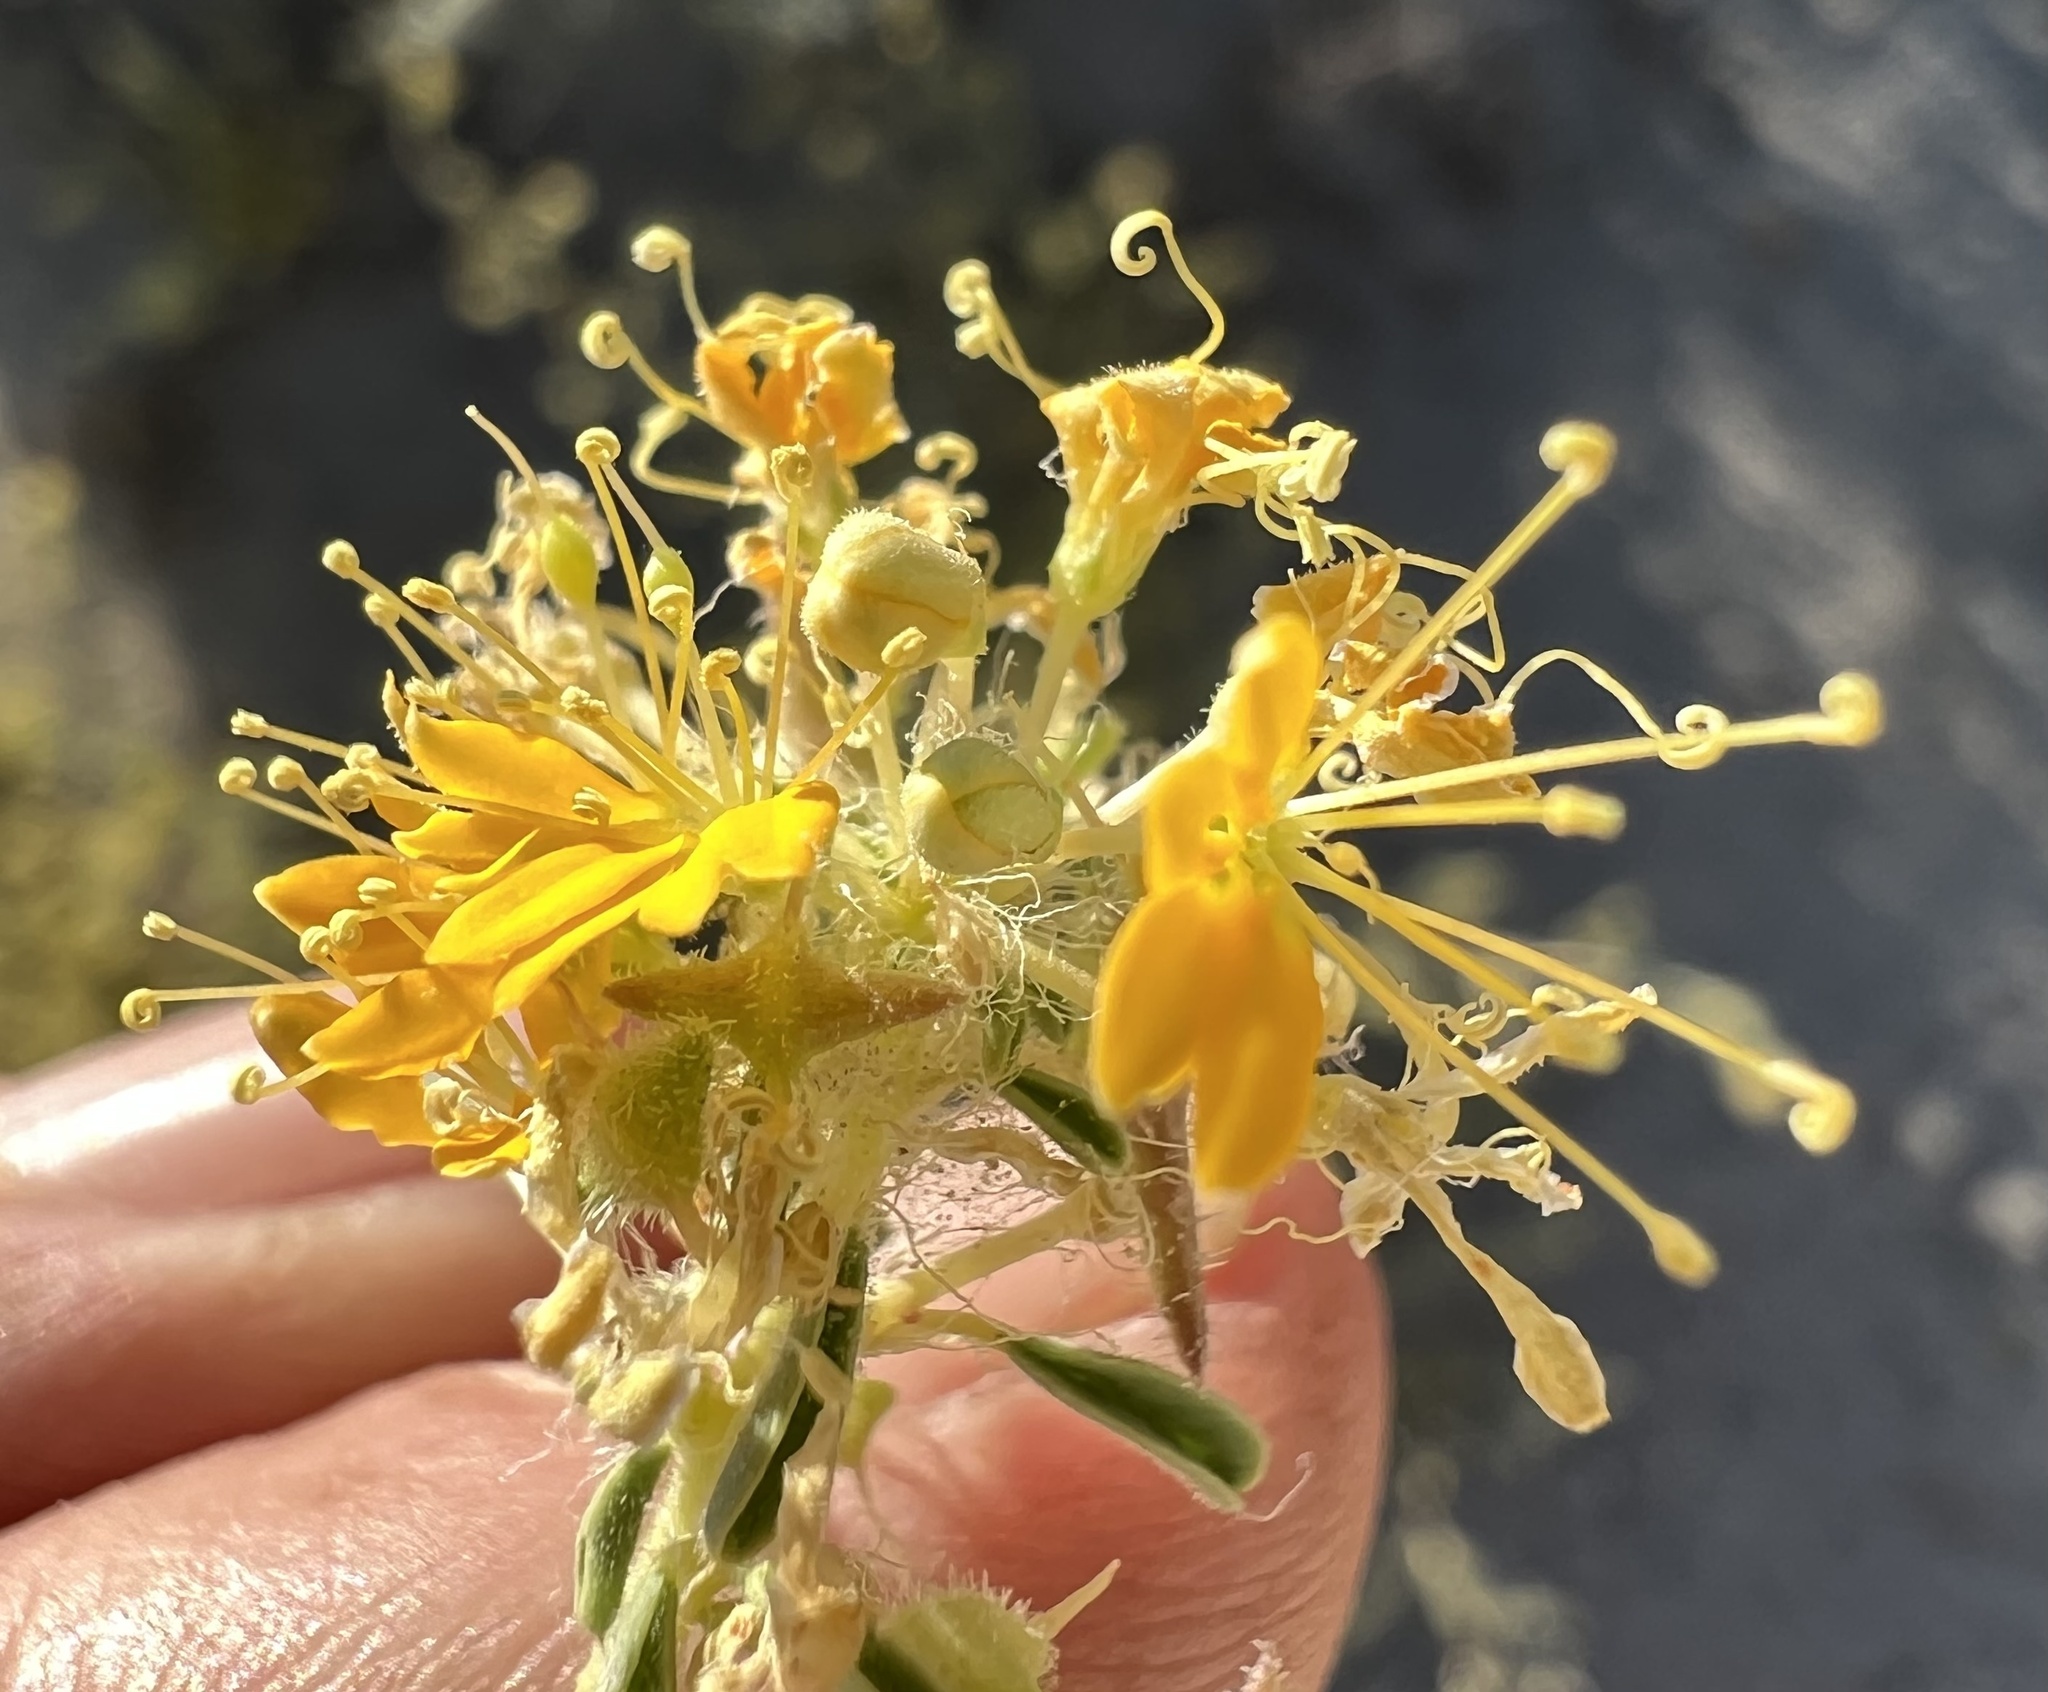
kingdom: Plantae
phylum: Tracheophyta
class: Magnoliopsida
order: Brassicales
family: Cleomaceae
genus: Cleomella
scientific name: Cleomella obtusifolia
